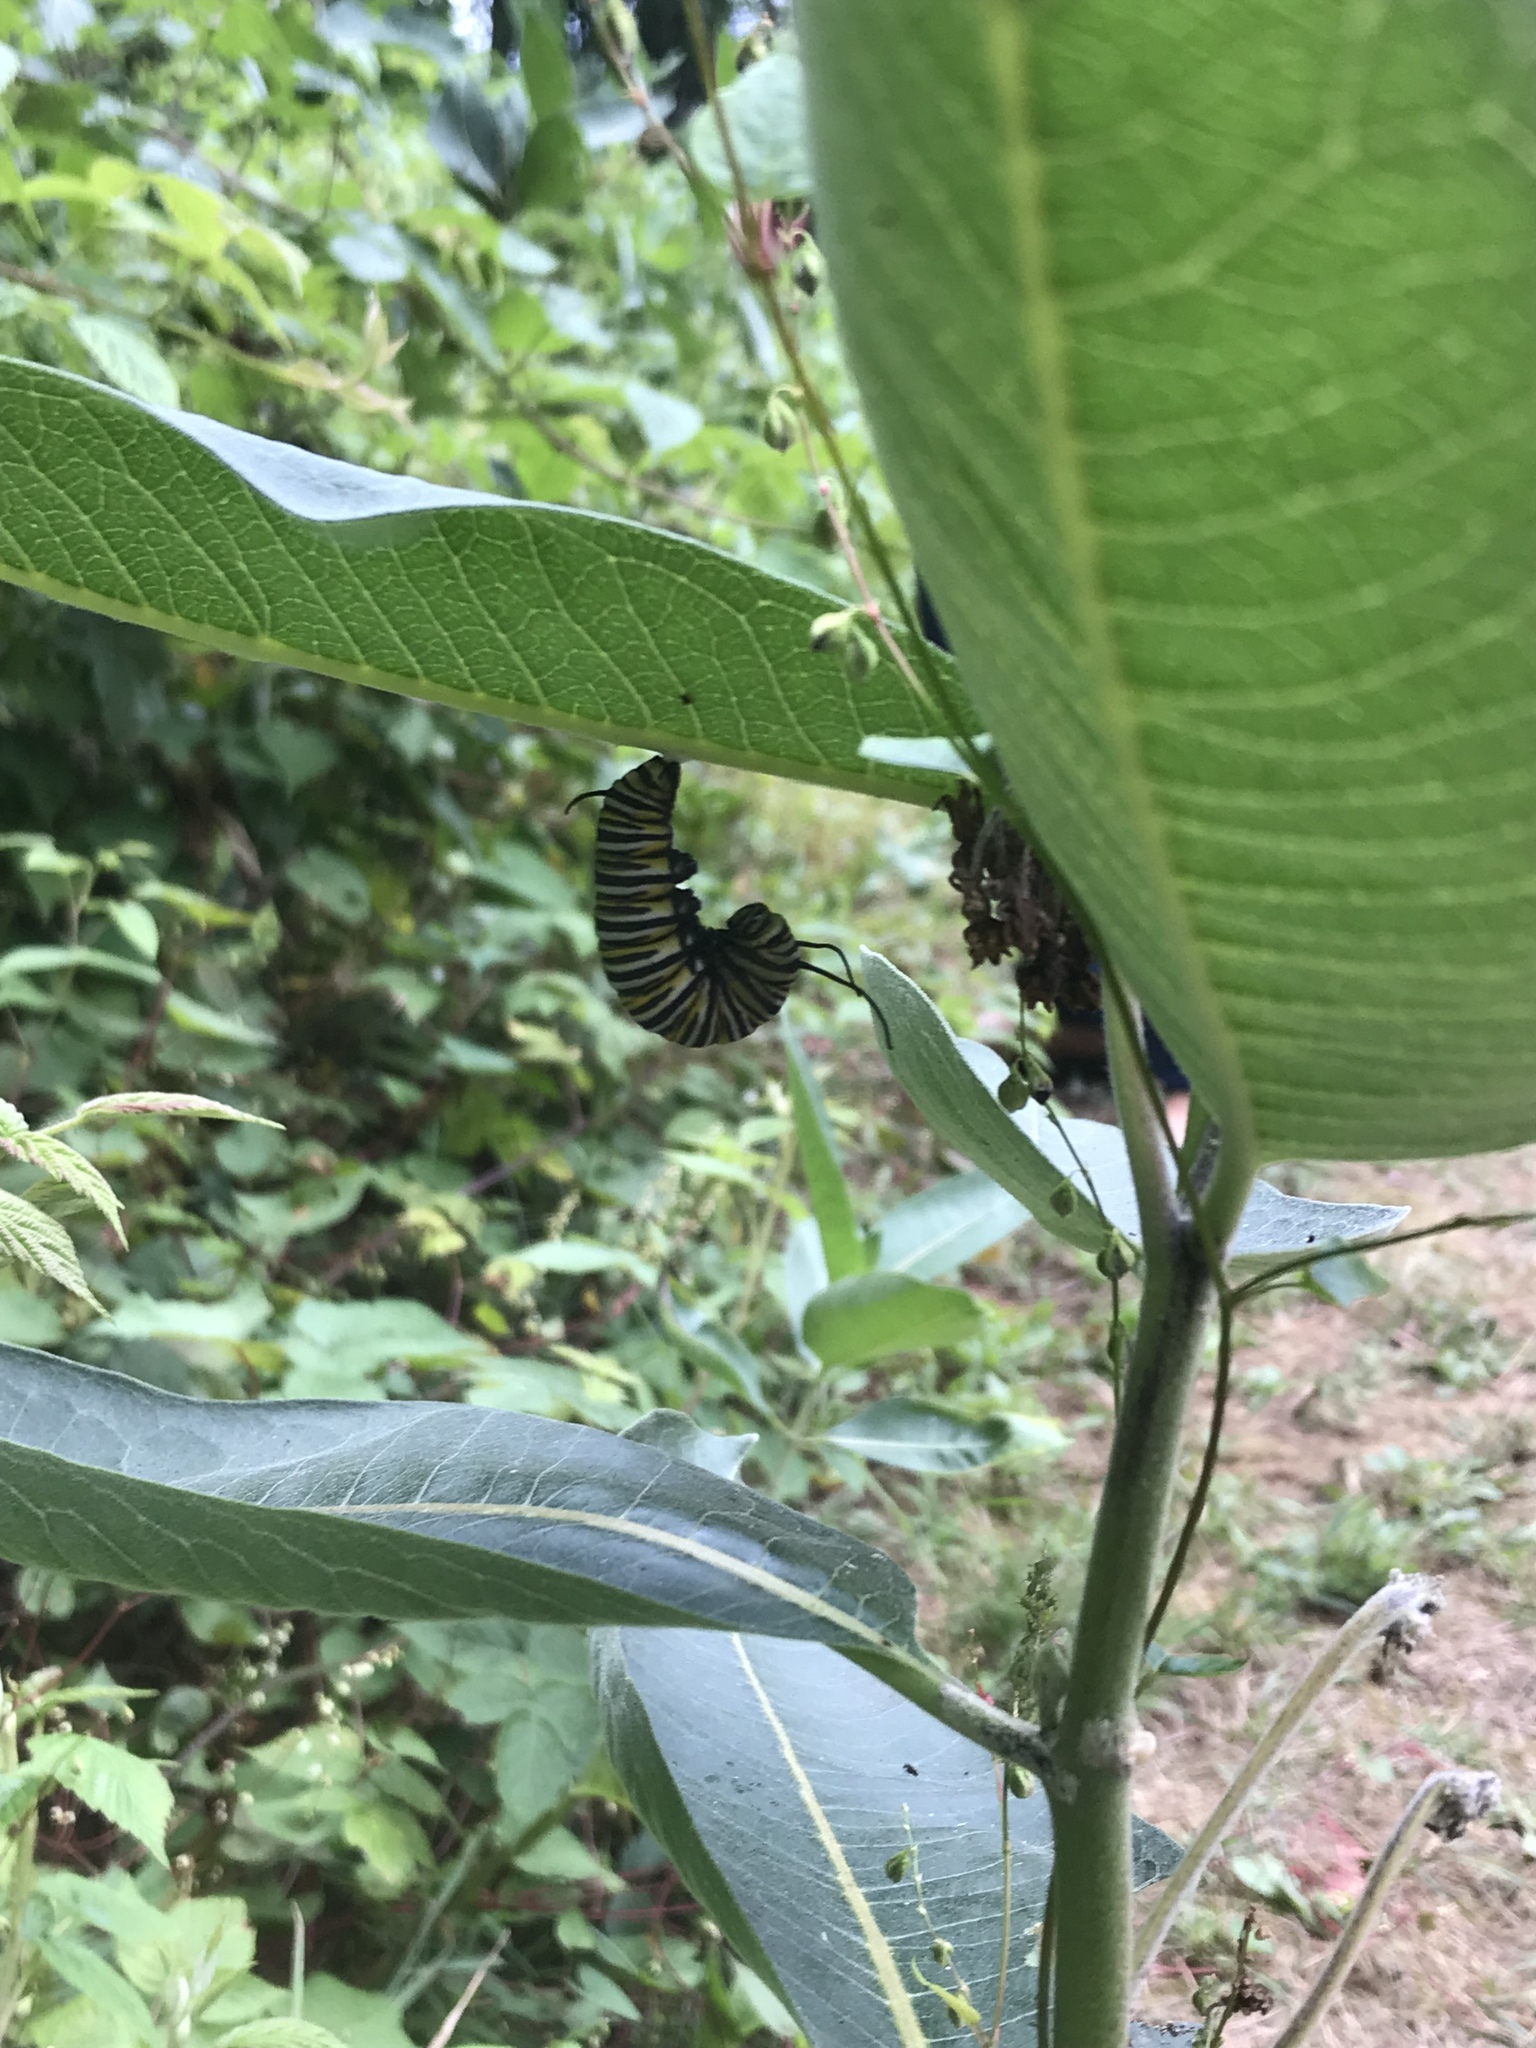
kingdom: Animalia
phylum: Arthropoda
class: Insecta
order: Lepidoptera
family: Nymphalidae
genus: Danaus
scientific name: Danaus plexippus
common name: Monarch
